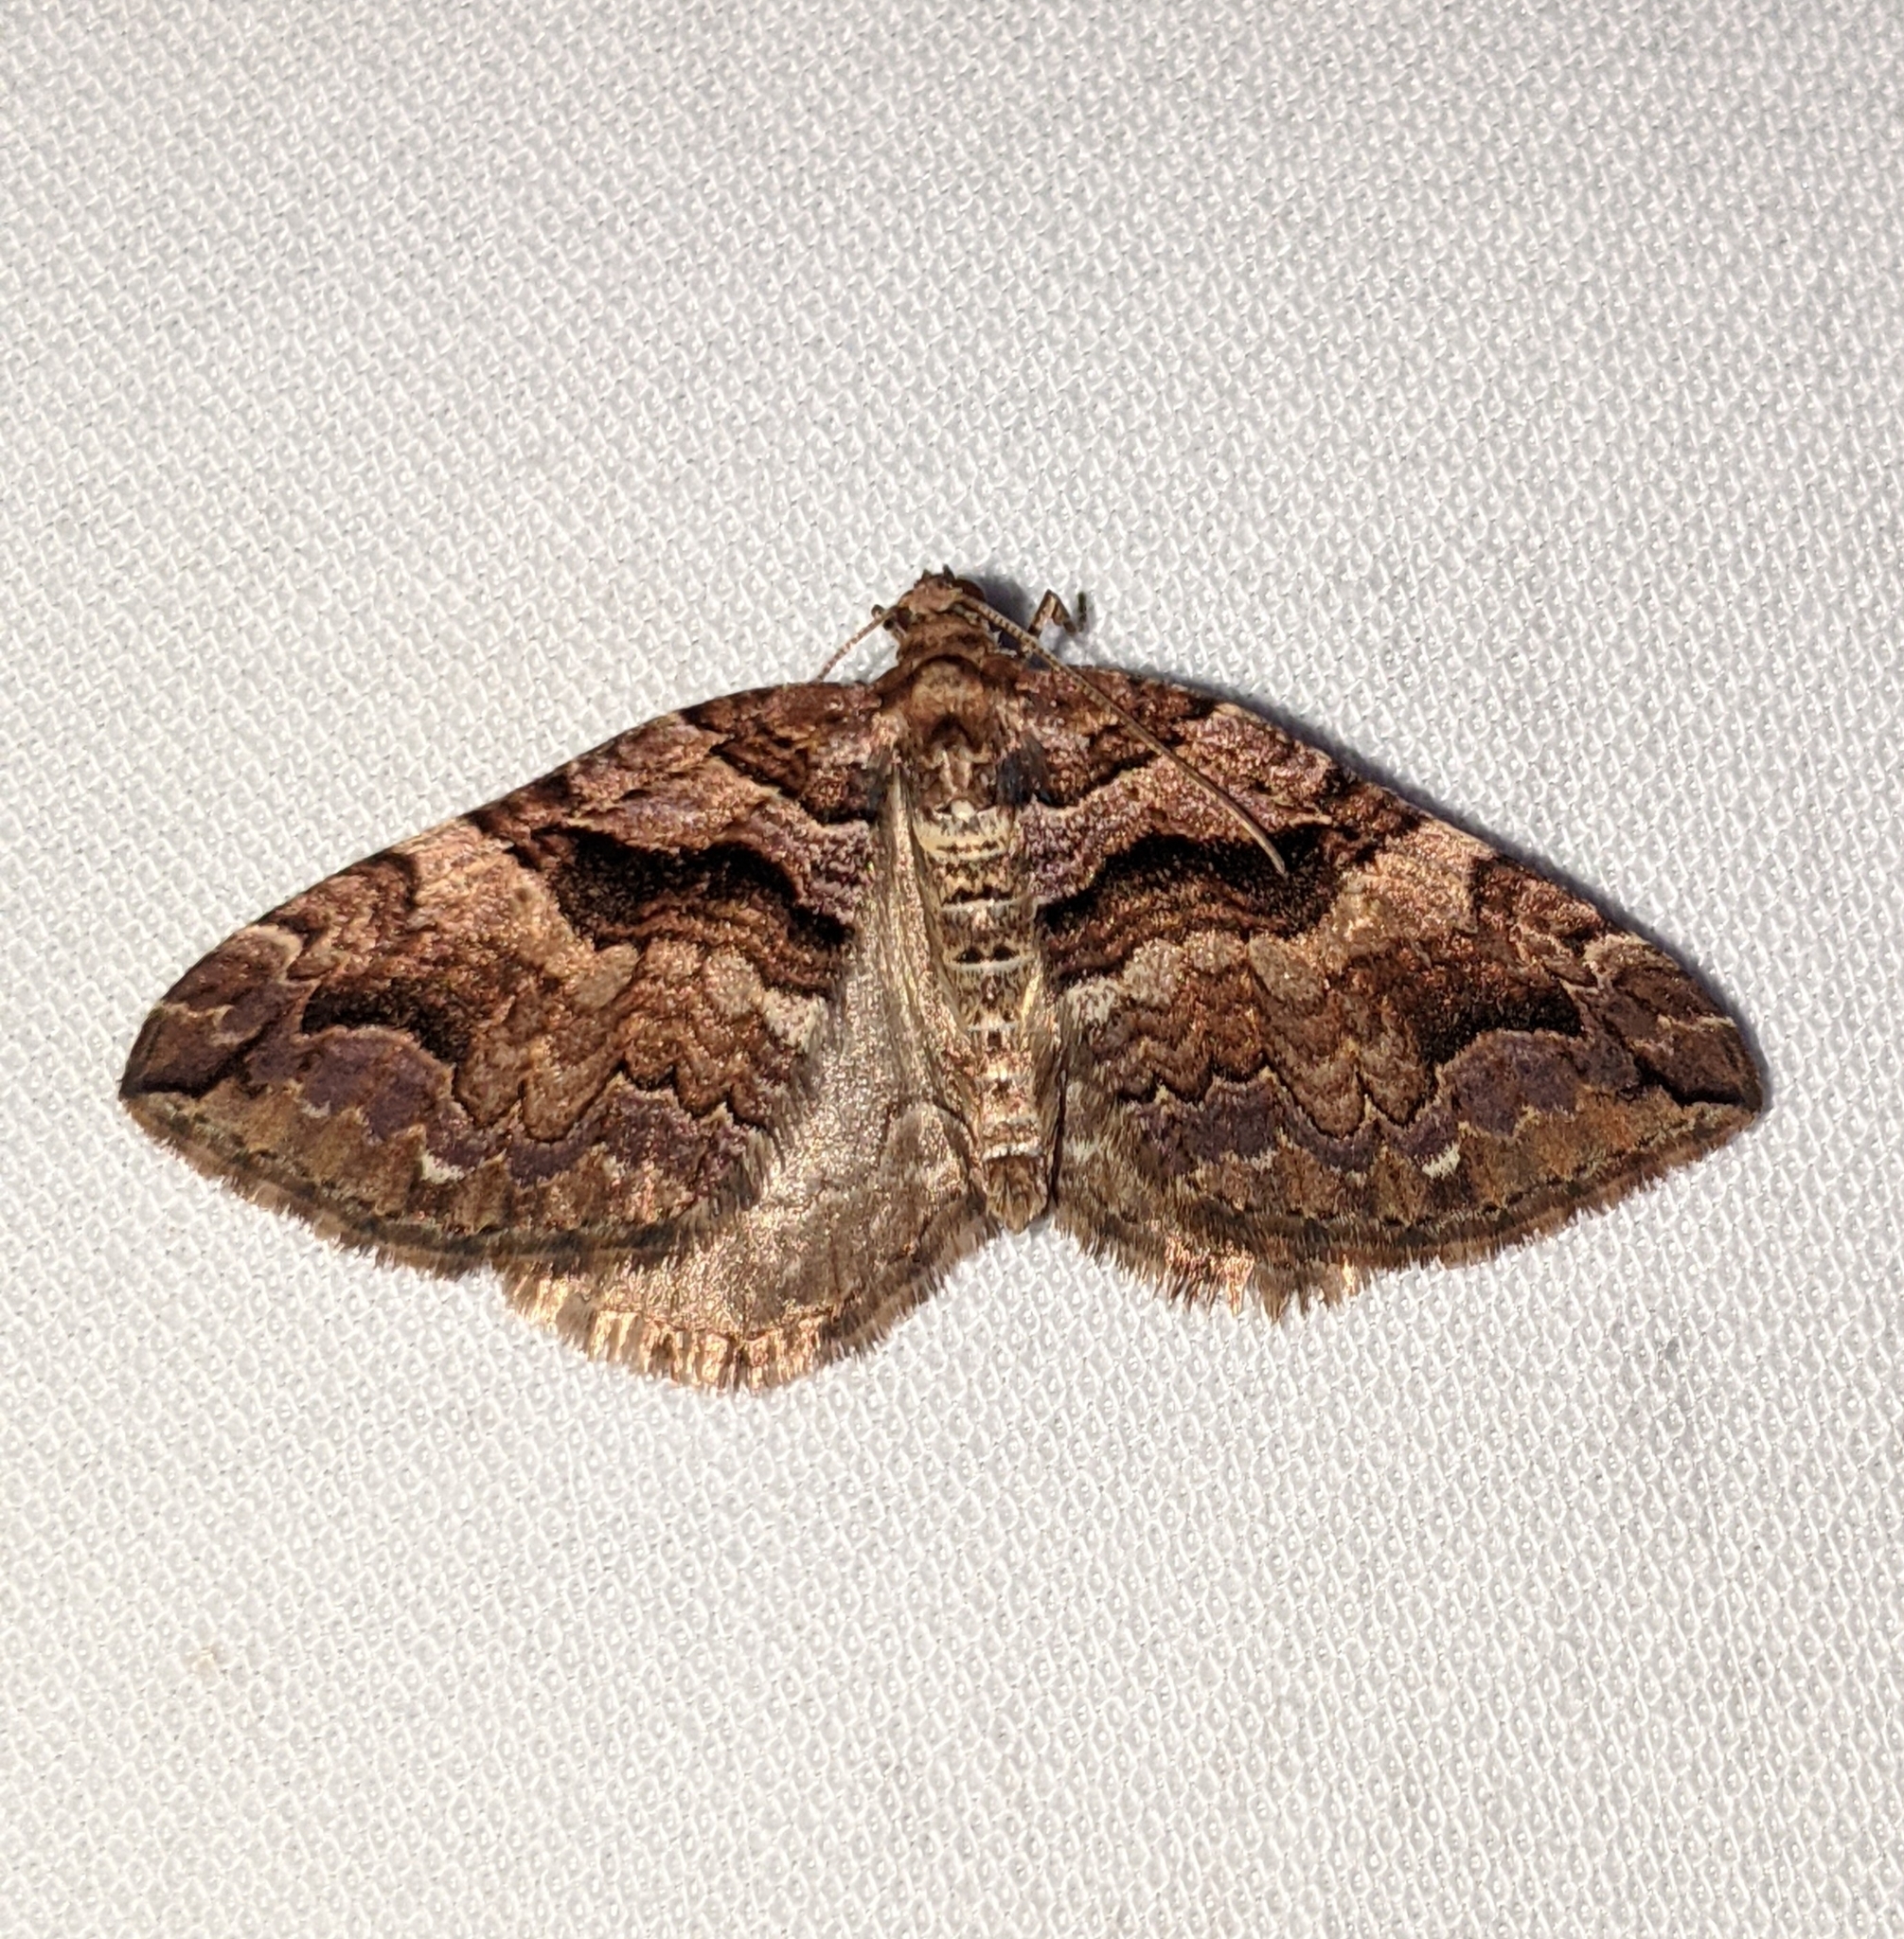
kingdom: Animalia
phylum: Arthropoda
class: Insecta
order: Lepidoptera
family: Geometridae
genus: Anticlea
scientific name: Anticlea vasiliata
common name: Variable carpet
